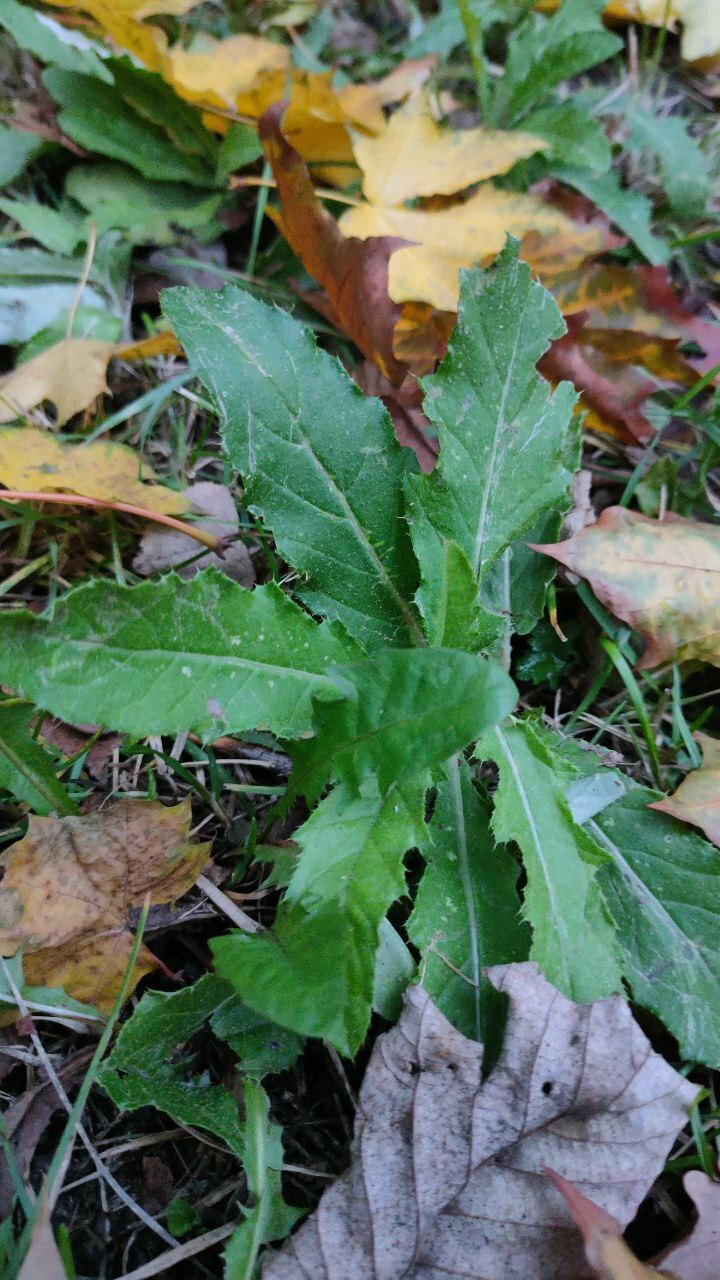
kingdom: Plantae
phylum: Tracheophyta
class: Magnoliopsida
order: Asterales
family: Asteraceae
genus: Cirsium
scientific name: Cirsium arvense
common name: Creeping thistle
